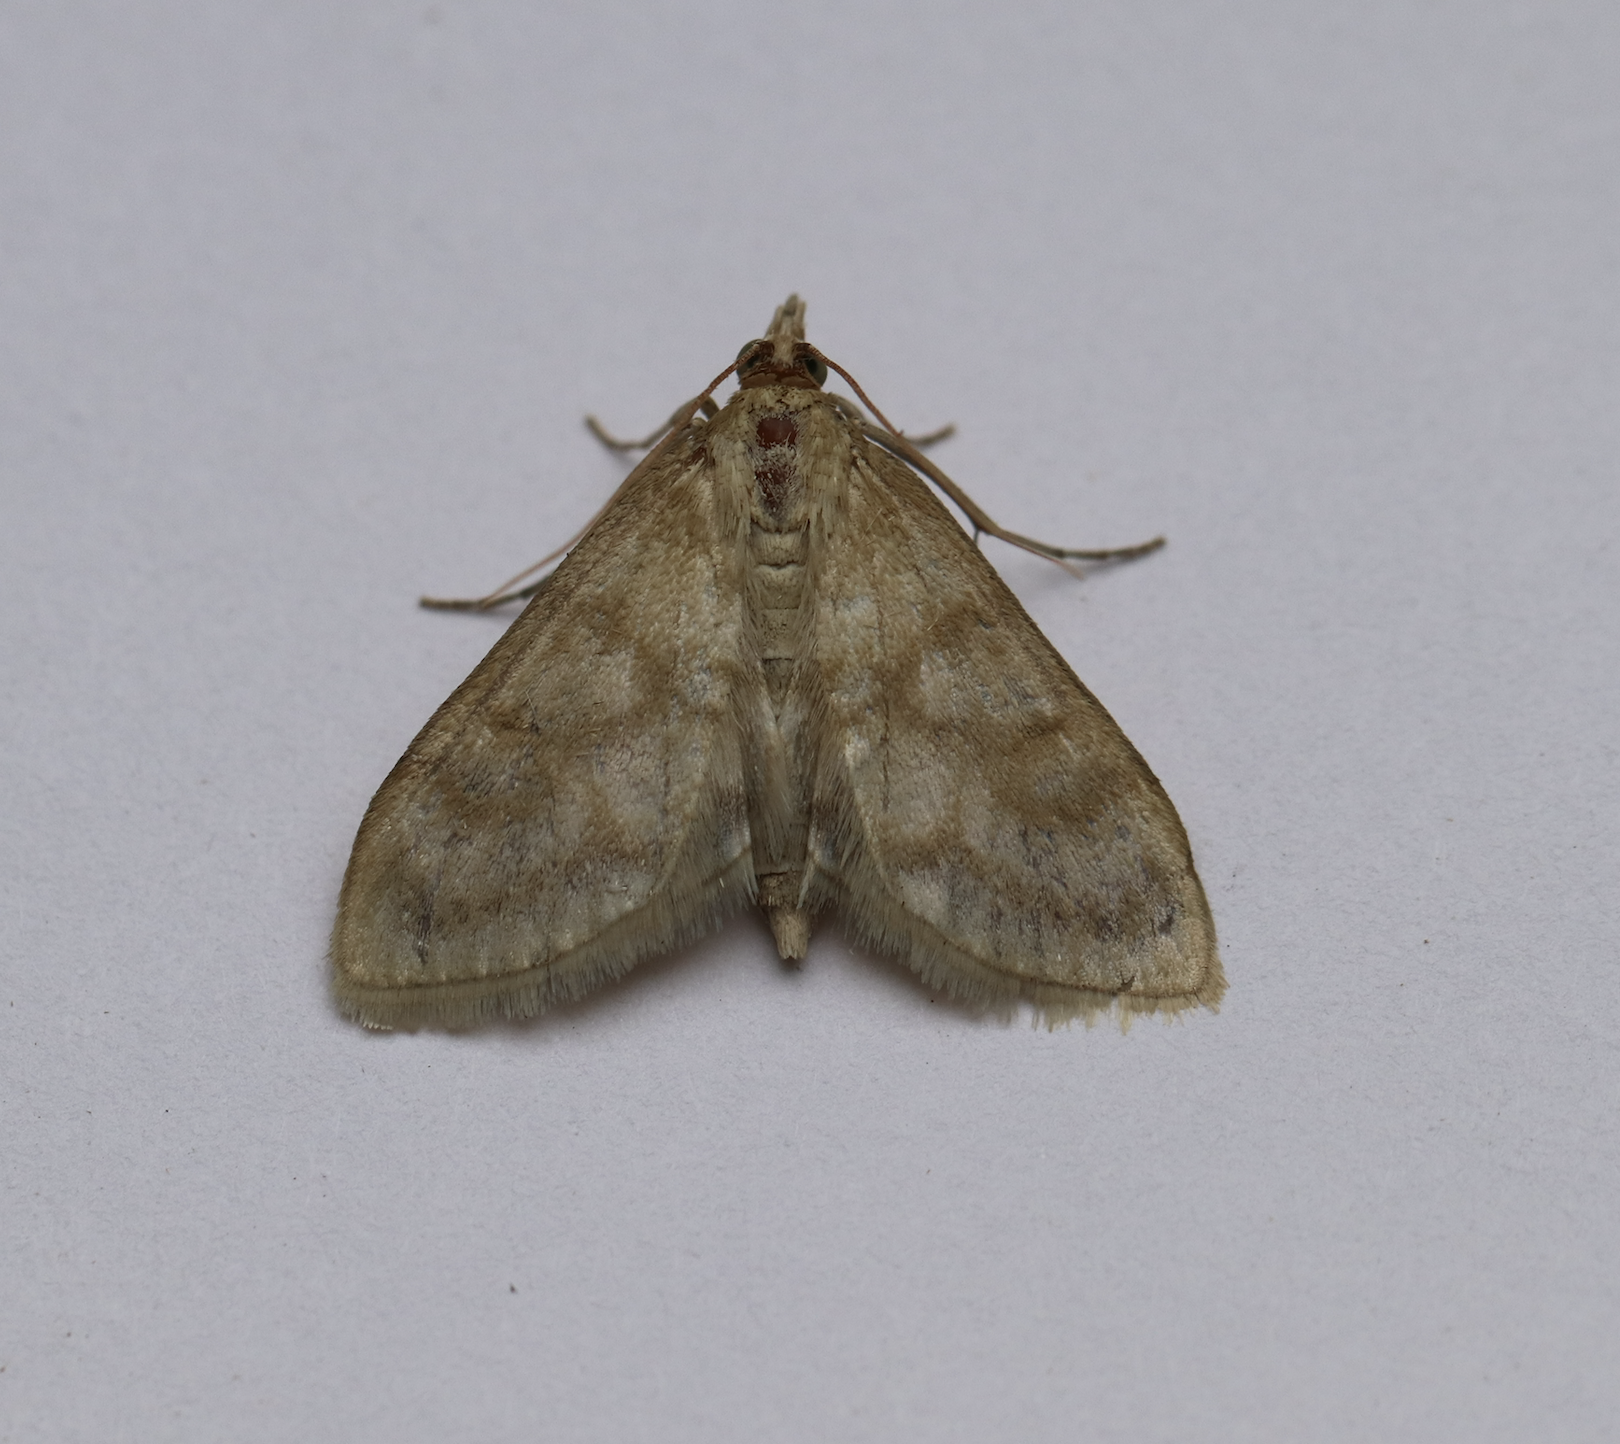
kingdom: Animalia
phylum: Arthropoda
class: Insecta
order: Lepidoptera
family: Crambidae
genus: Paracorsia
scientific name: Paracorsia repandalis
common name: Mullein moth
